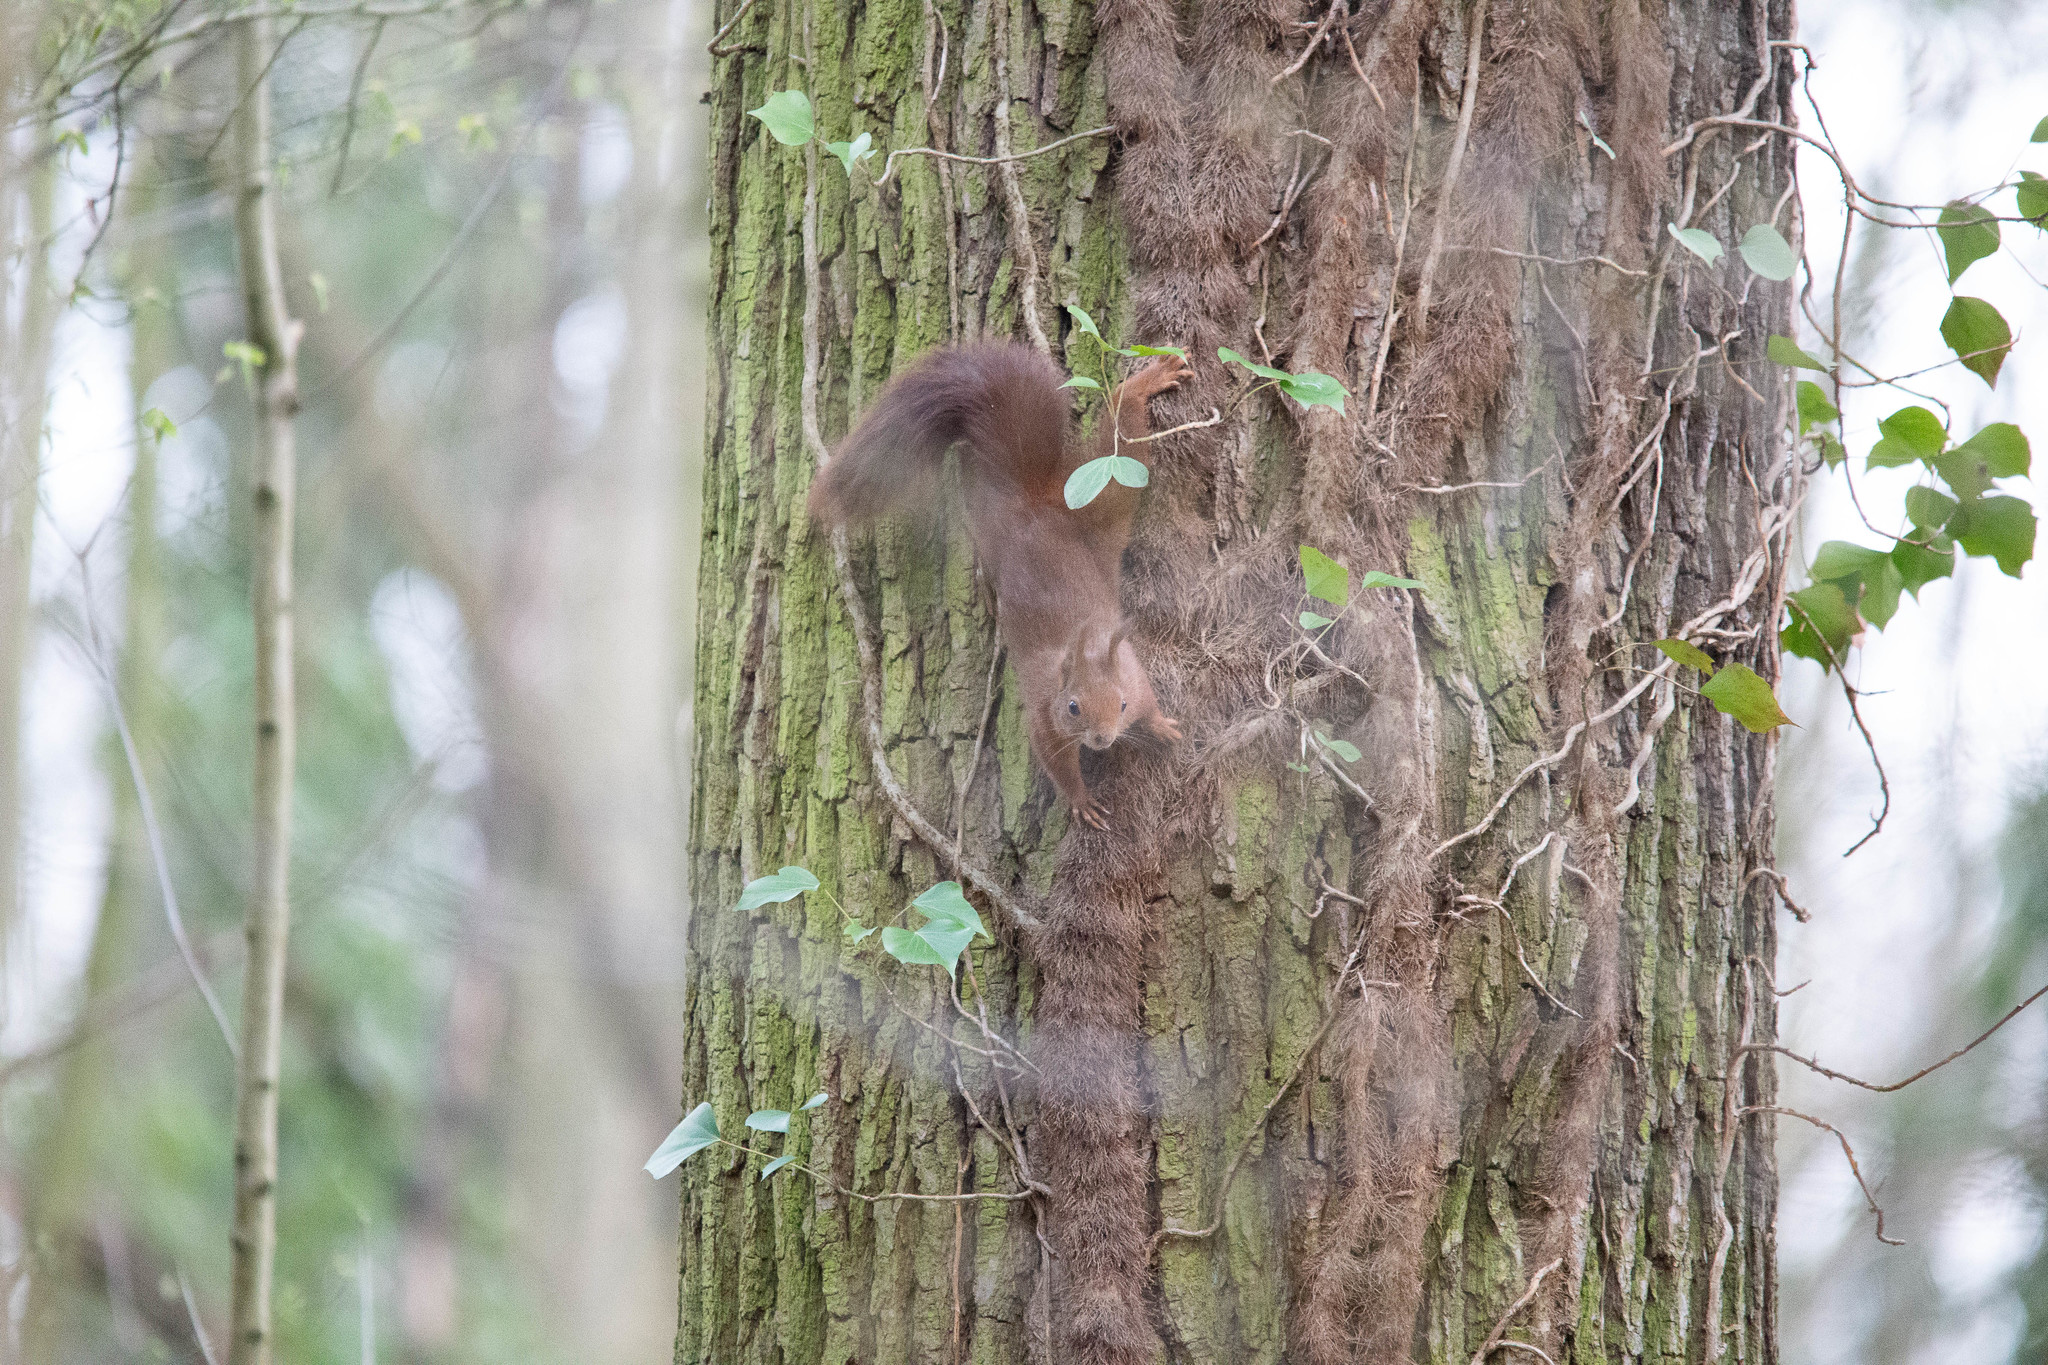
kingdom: Animalia
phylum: Chordata
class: Mammalia
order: Rodentia
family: Sciuridae
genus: Sciurus
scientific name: Sciurus vulgaris
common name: Eurasian red squirrel
